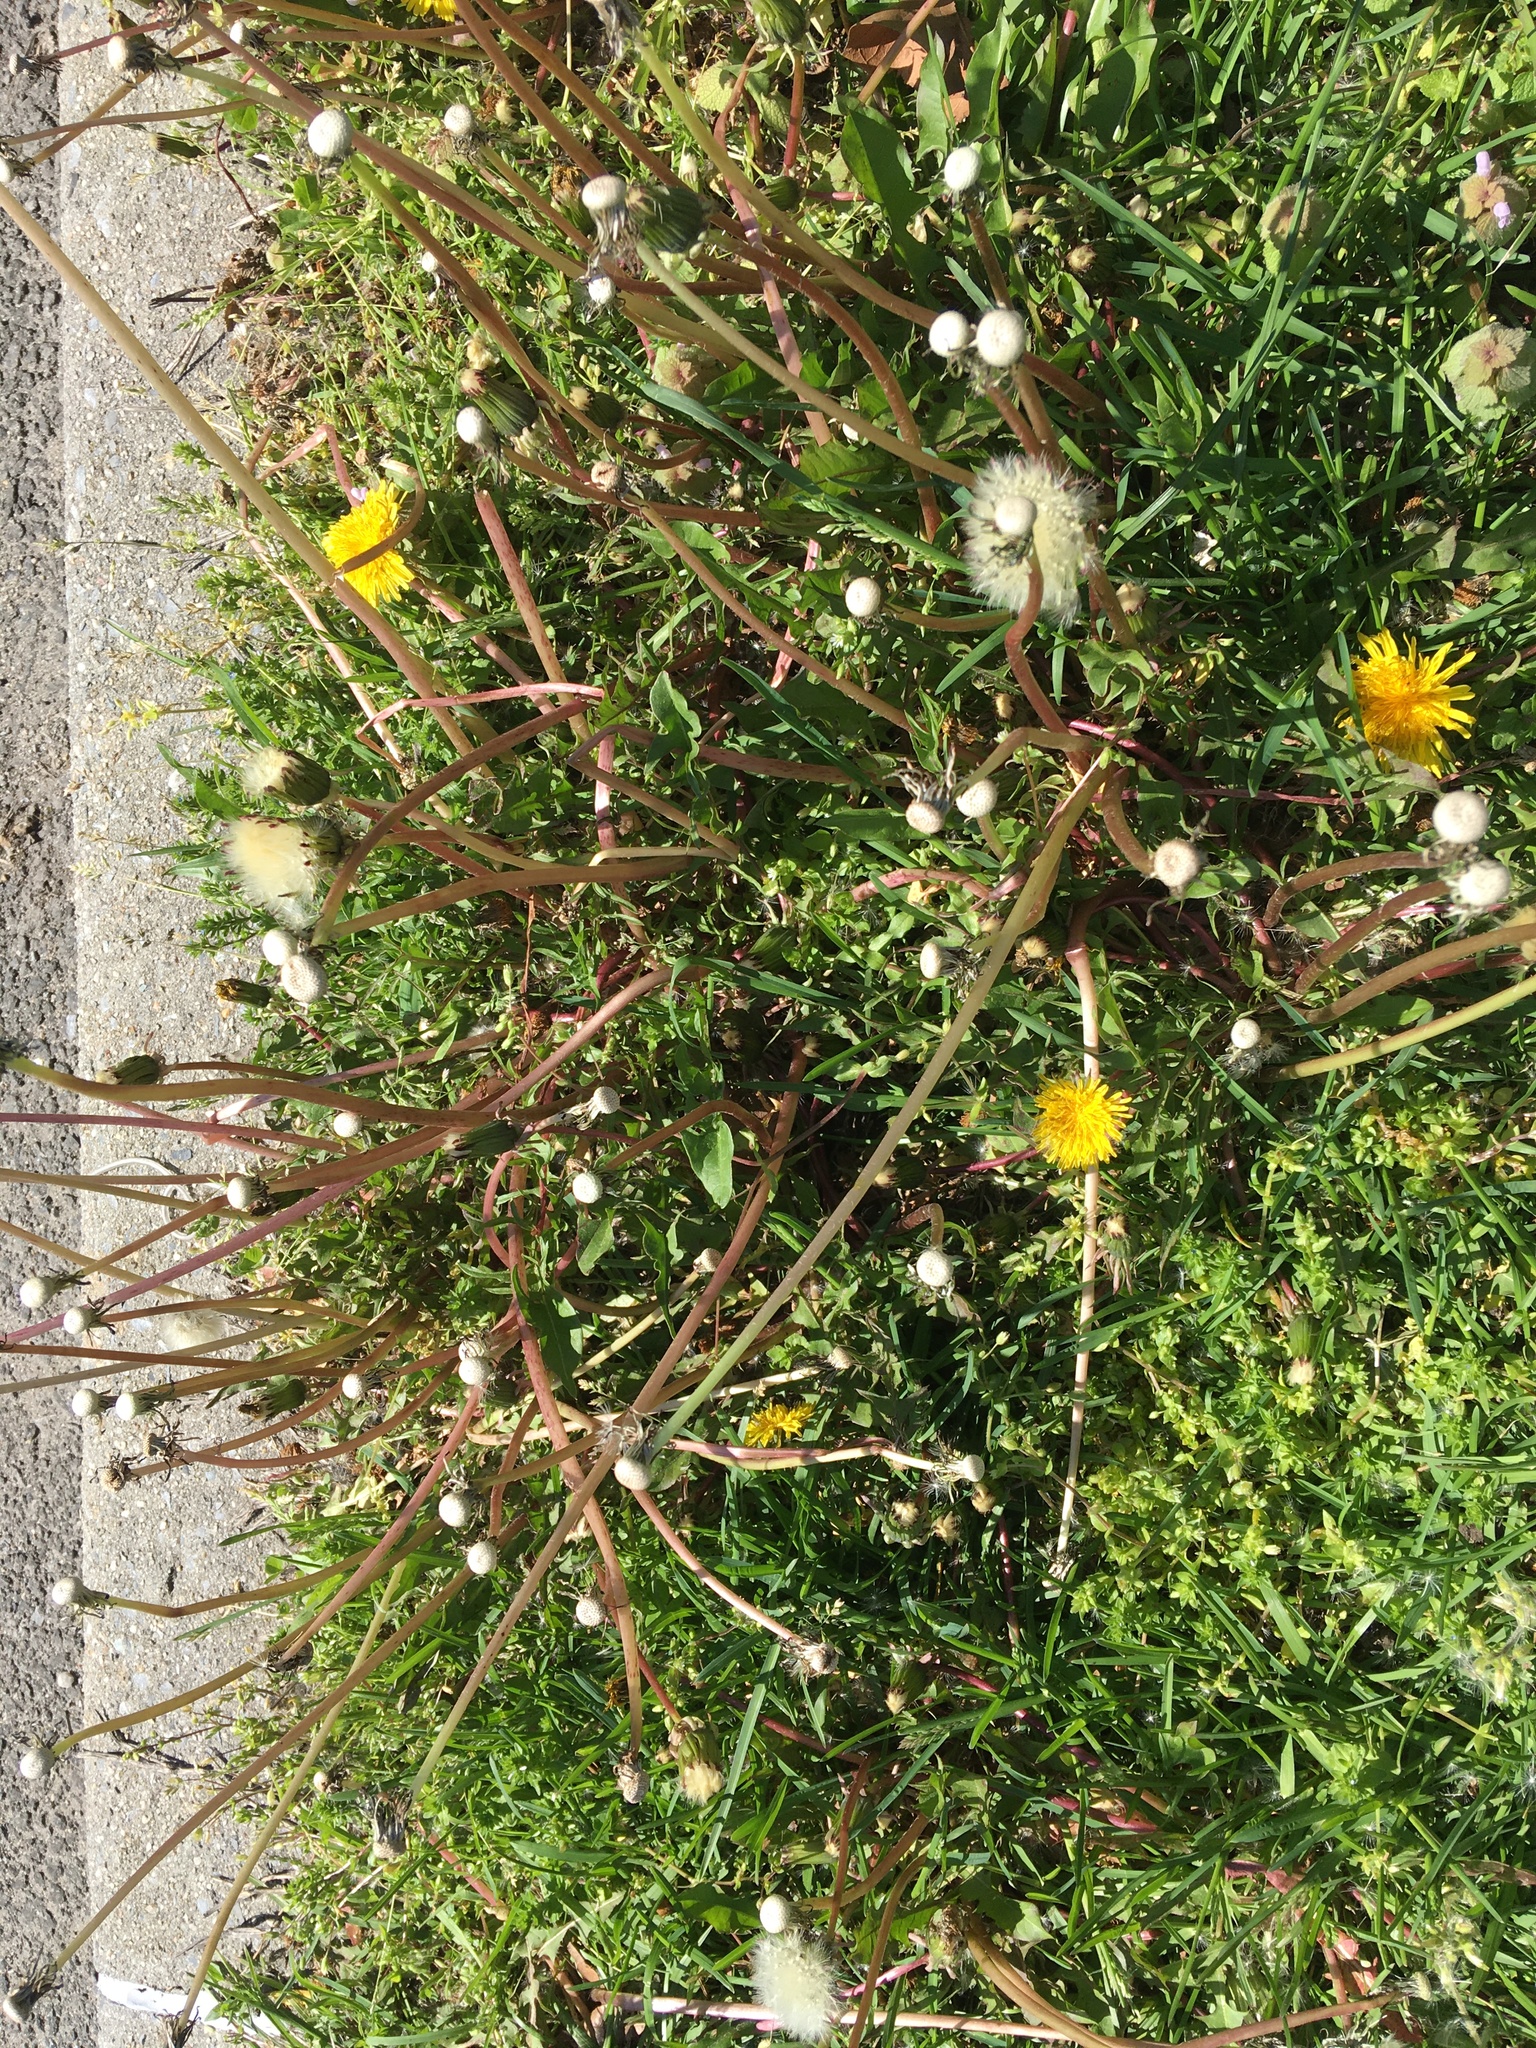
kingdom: Plantae
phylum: Tracheophyta
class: Magnoliopsida
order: Asterales
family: Asteraceae
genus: Taraxacum
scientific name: Taraxacum officinale
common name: Common dandelion
